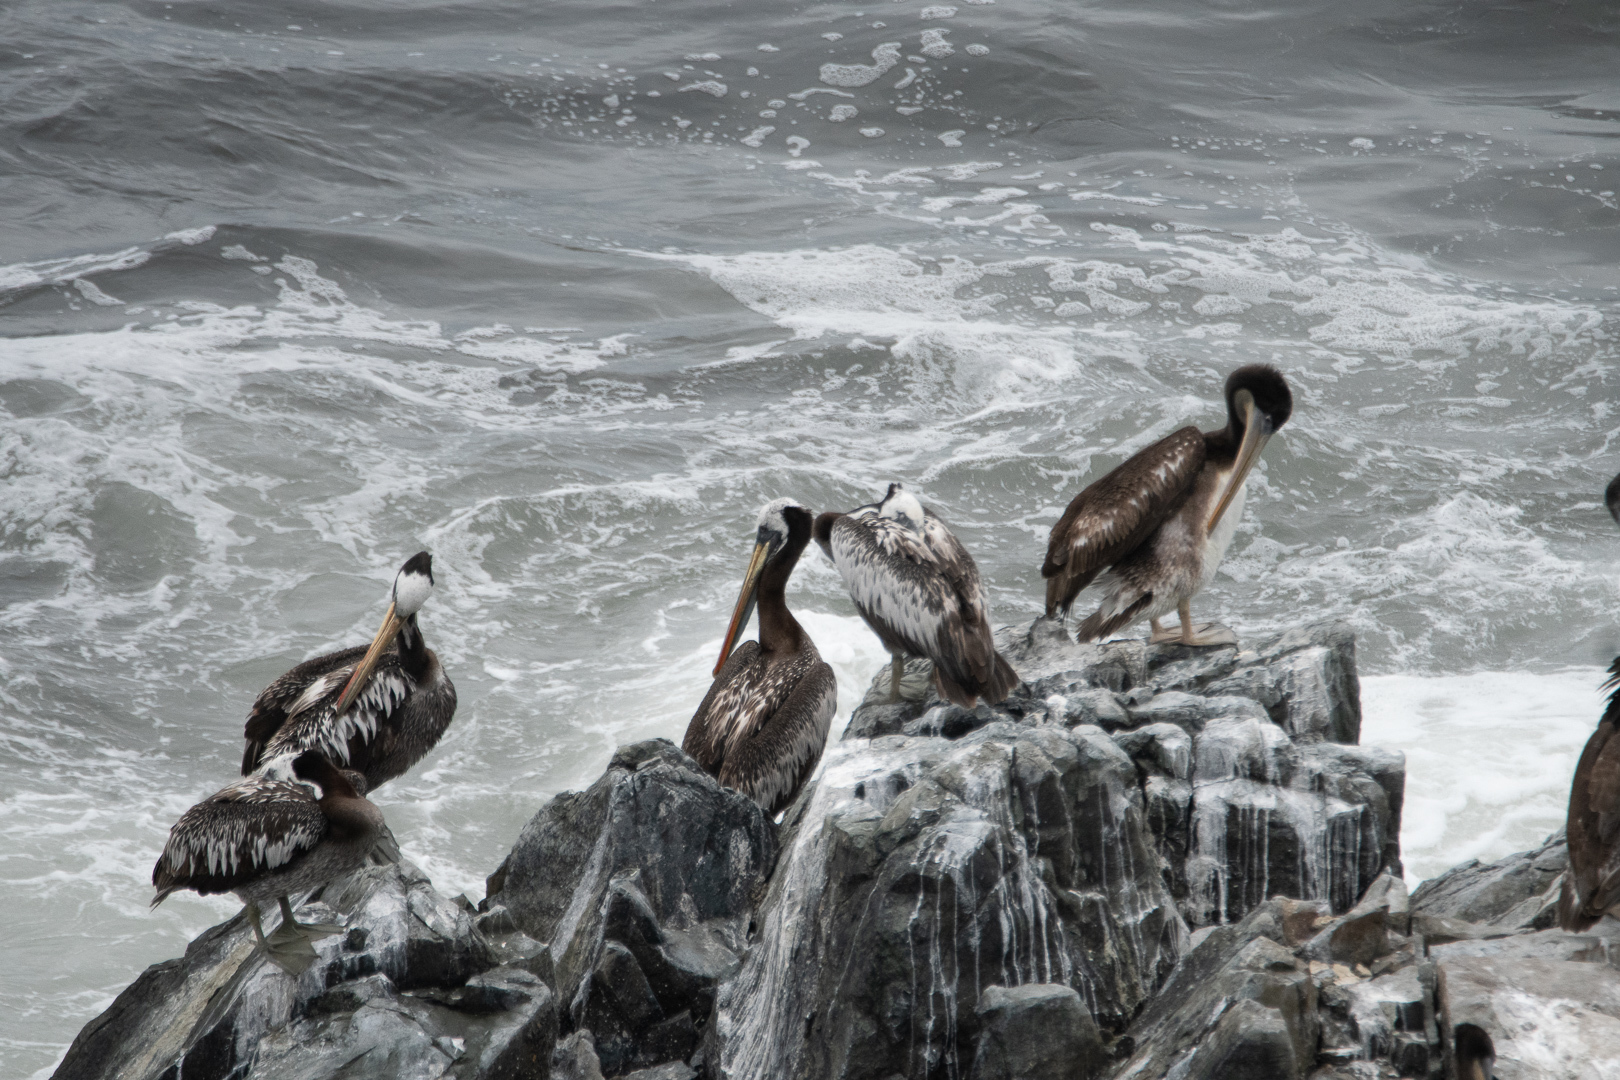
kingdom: Animalia
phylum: Chordata
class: Aves
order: Pelecaniformes
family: Pelecanidae
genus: Pelecanus
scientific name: Pelecanus thagus
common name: Peruvian pelican
